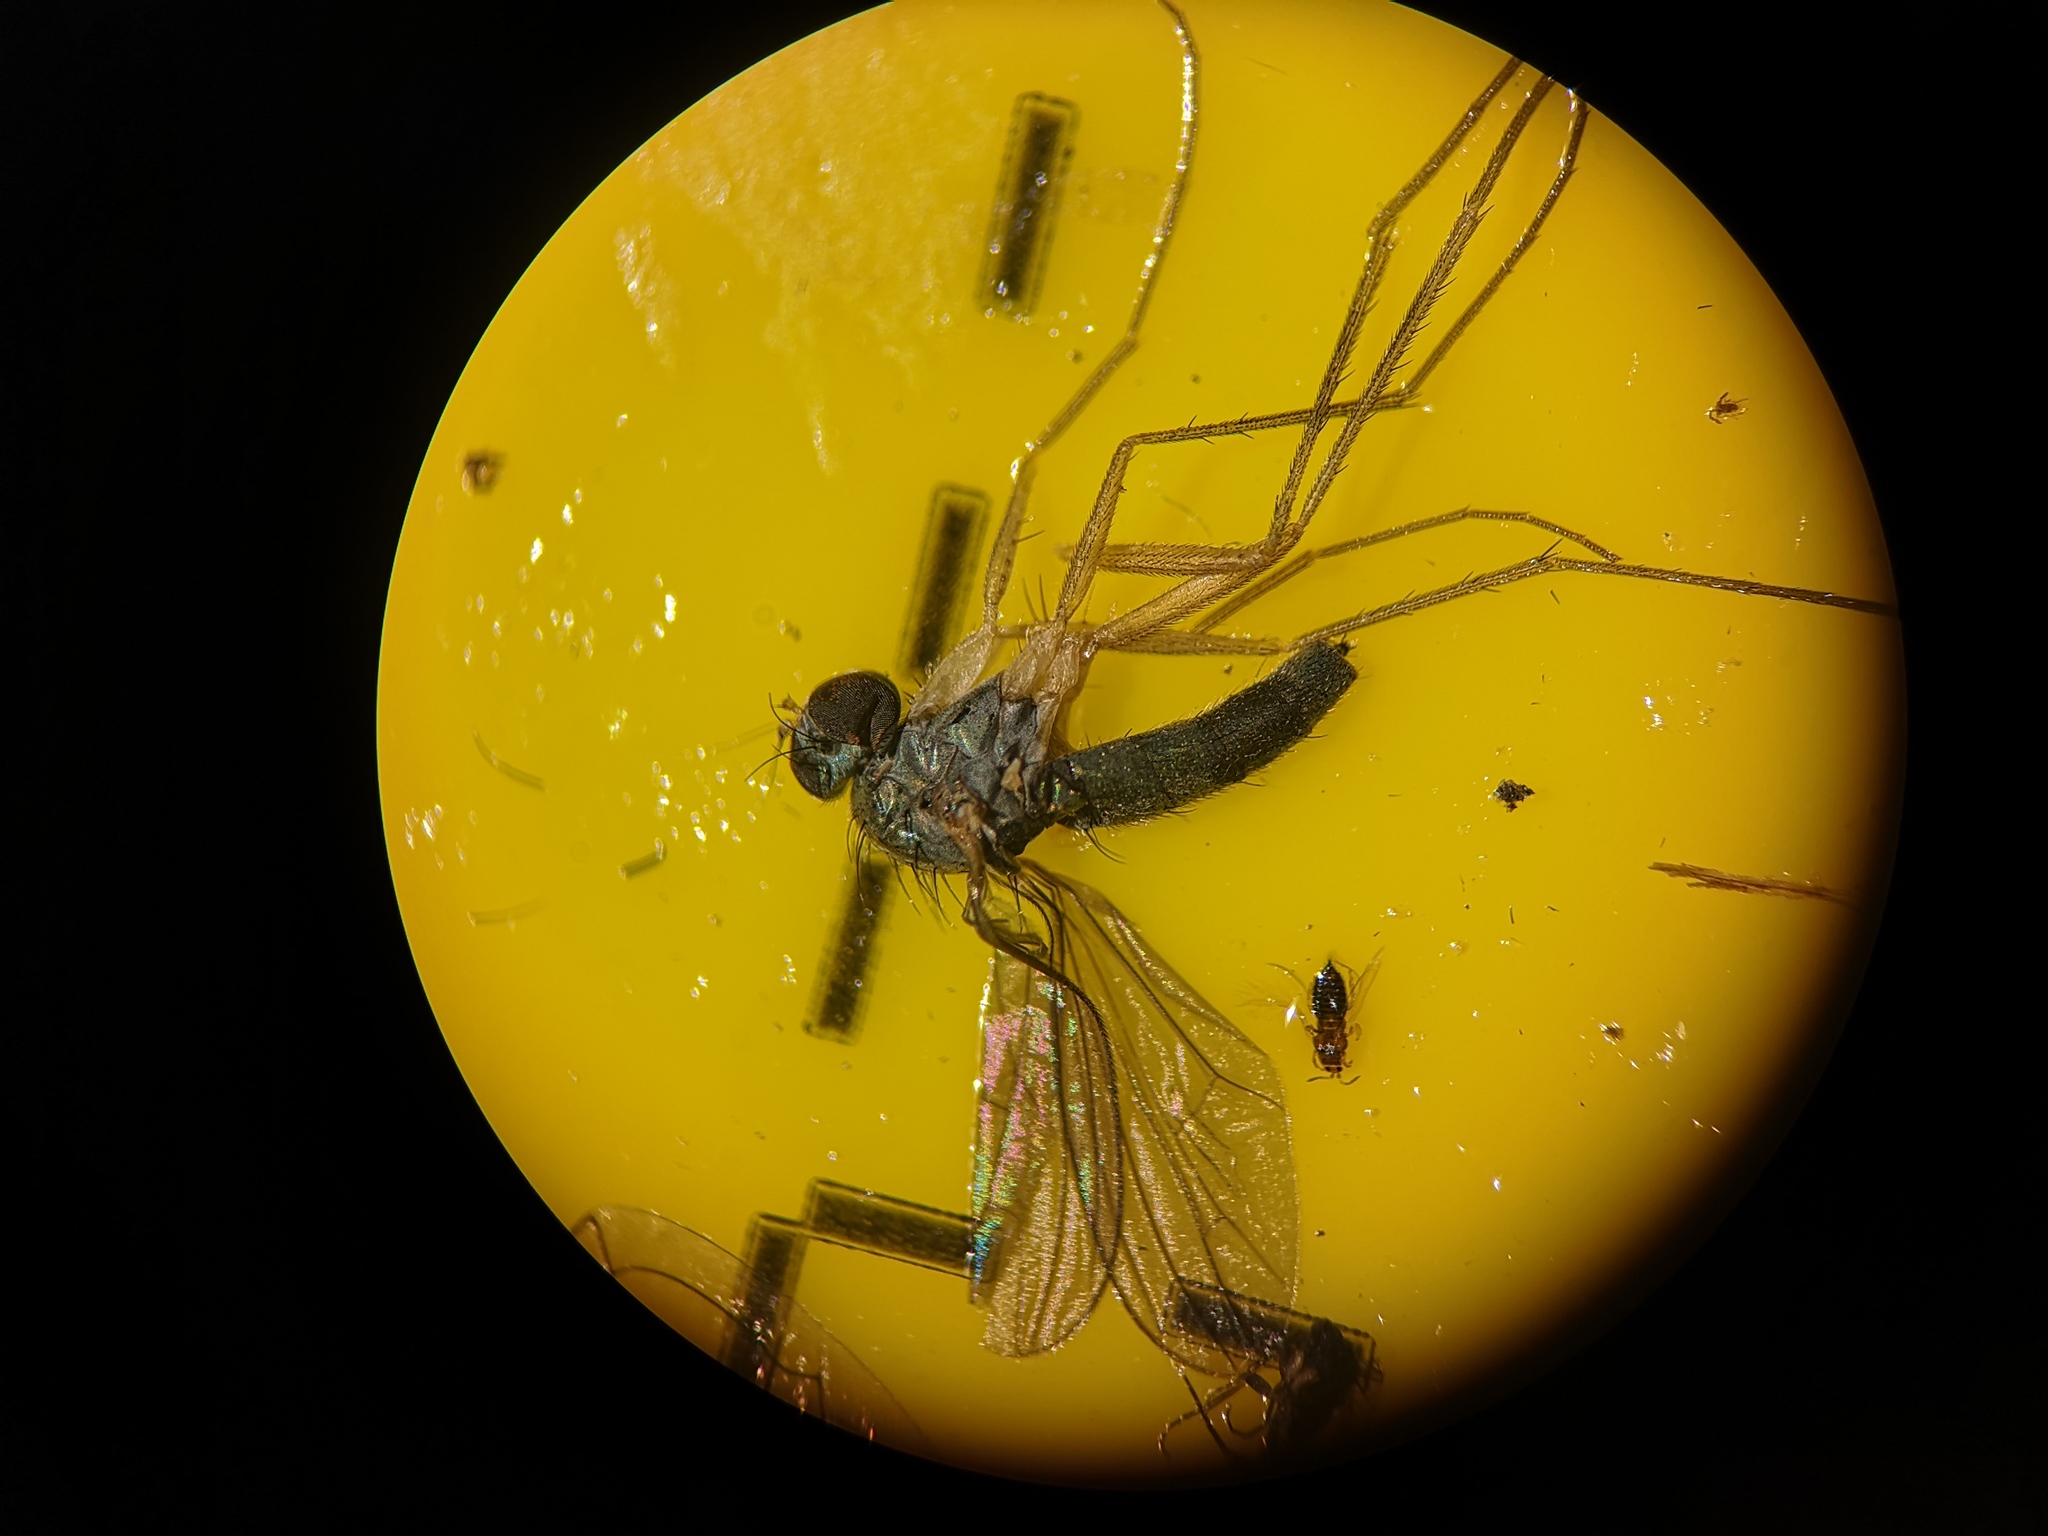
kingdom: Animalia
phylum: Arthropoda
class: Insecta
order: Diptera
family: Dolichopodidae
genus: Sciapus
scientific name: Sciapus platypterus
